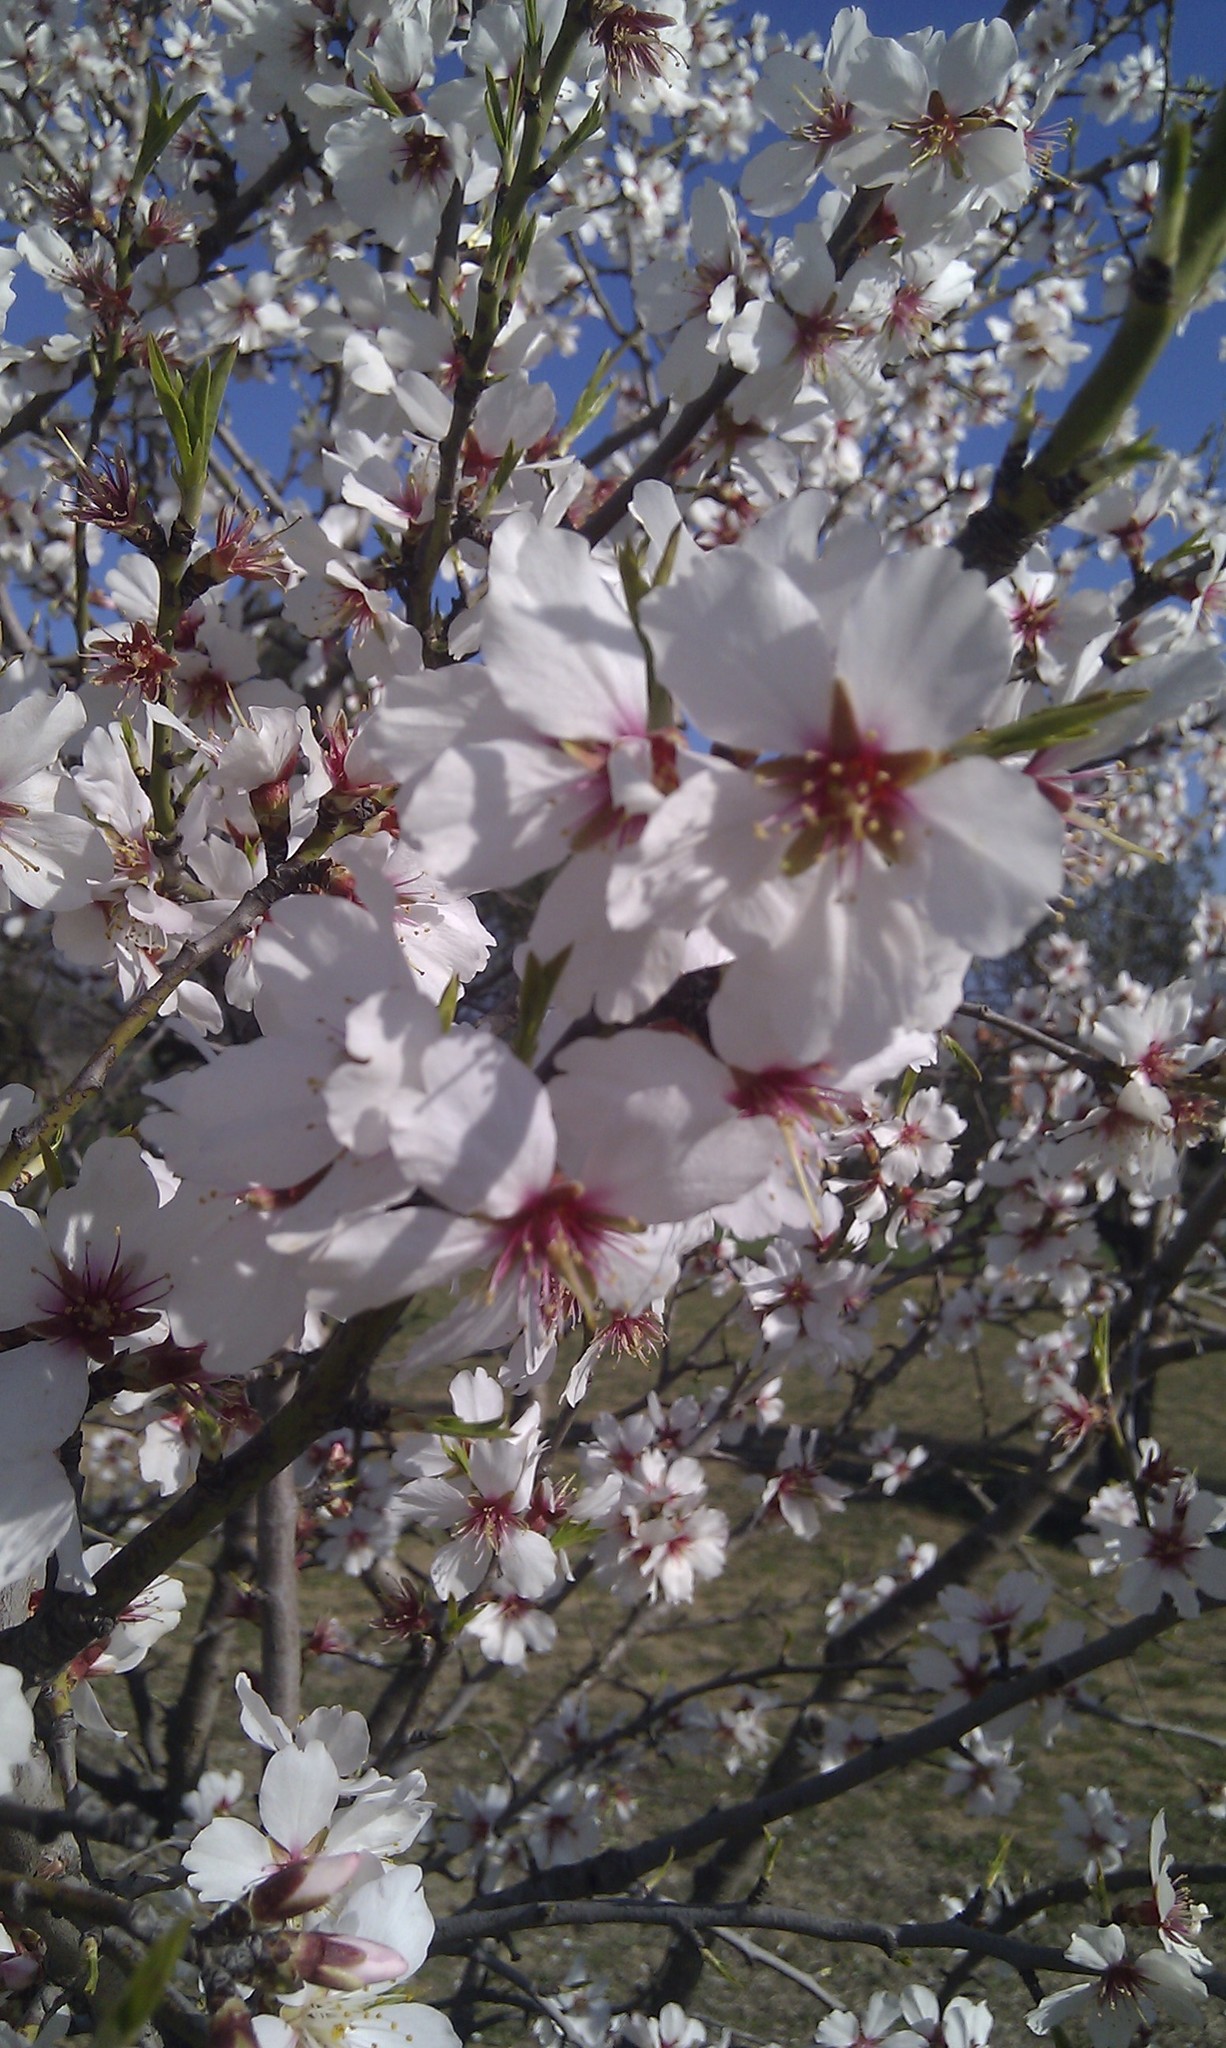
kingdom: Plantae
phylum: Tracheophyta
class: Magnoliopsida
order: Rosales
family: Rosaceae
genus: Prunus
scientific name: Prunus amygdalus
